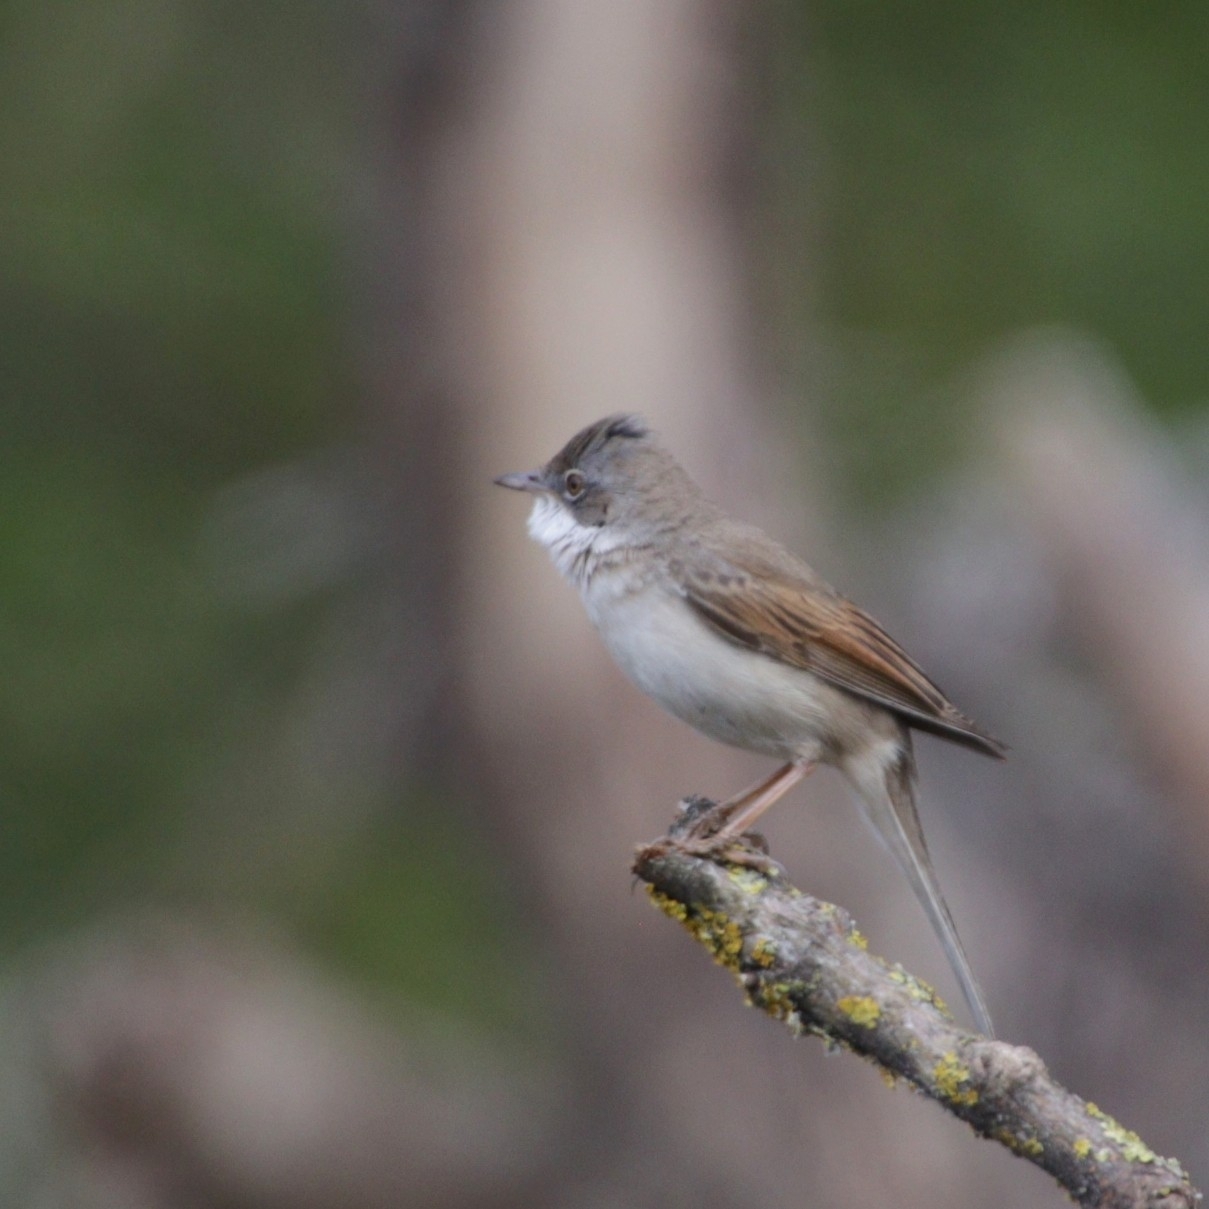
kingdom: Animalia
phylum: Chordata
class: Aves
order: Passeriformes
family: Sylviidae
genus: Sylvia
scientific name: Sylvia communis
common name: Common whitethroat
